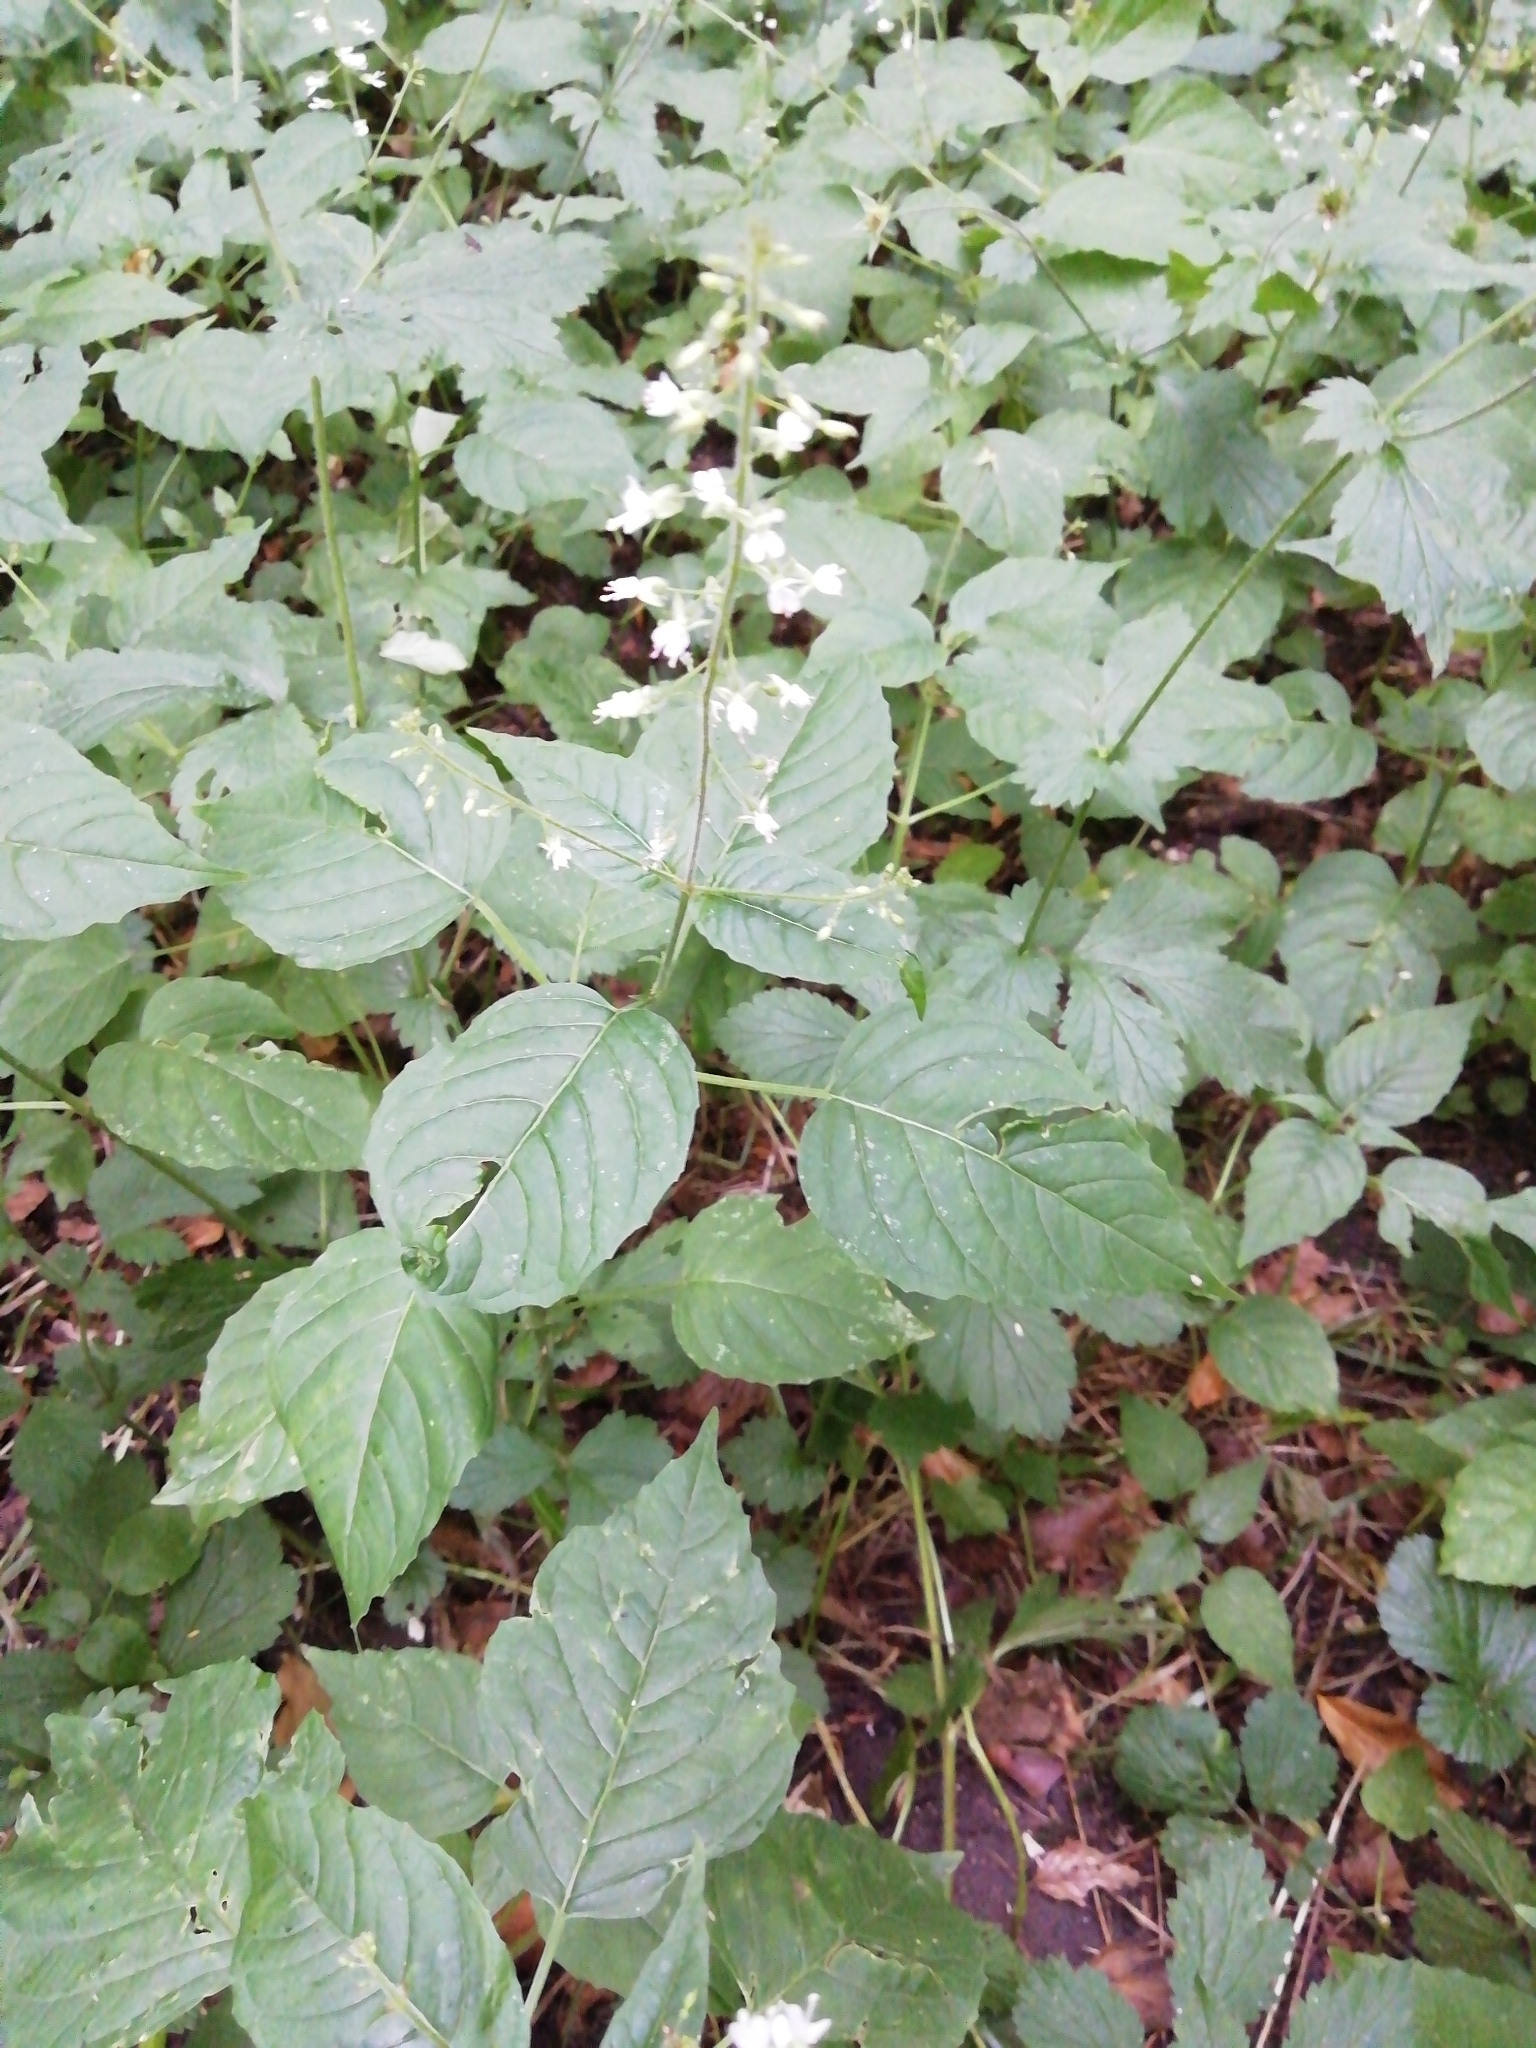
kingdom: Plantae
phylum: Tracheophyta
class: Magnoliopsida
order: Myrtales
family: Onagraceae
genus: Circaea
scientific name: Circaea lutetiana
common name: Enchanter's-nightshade
